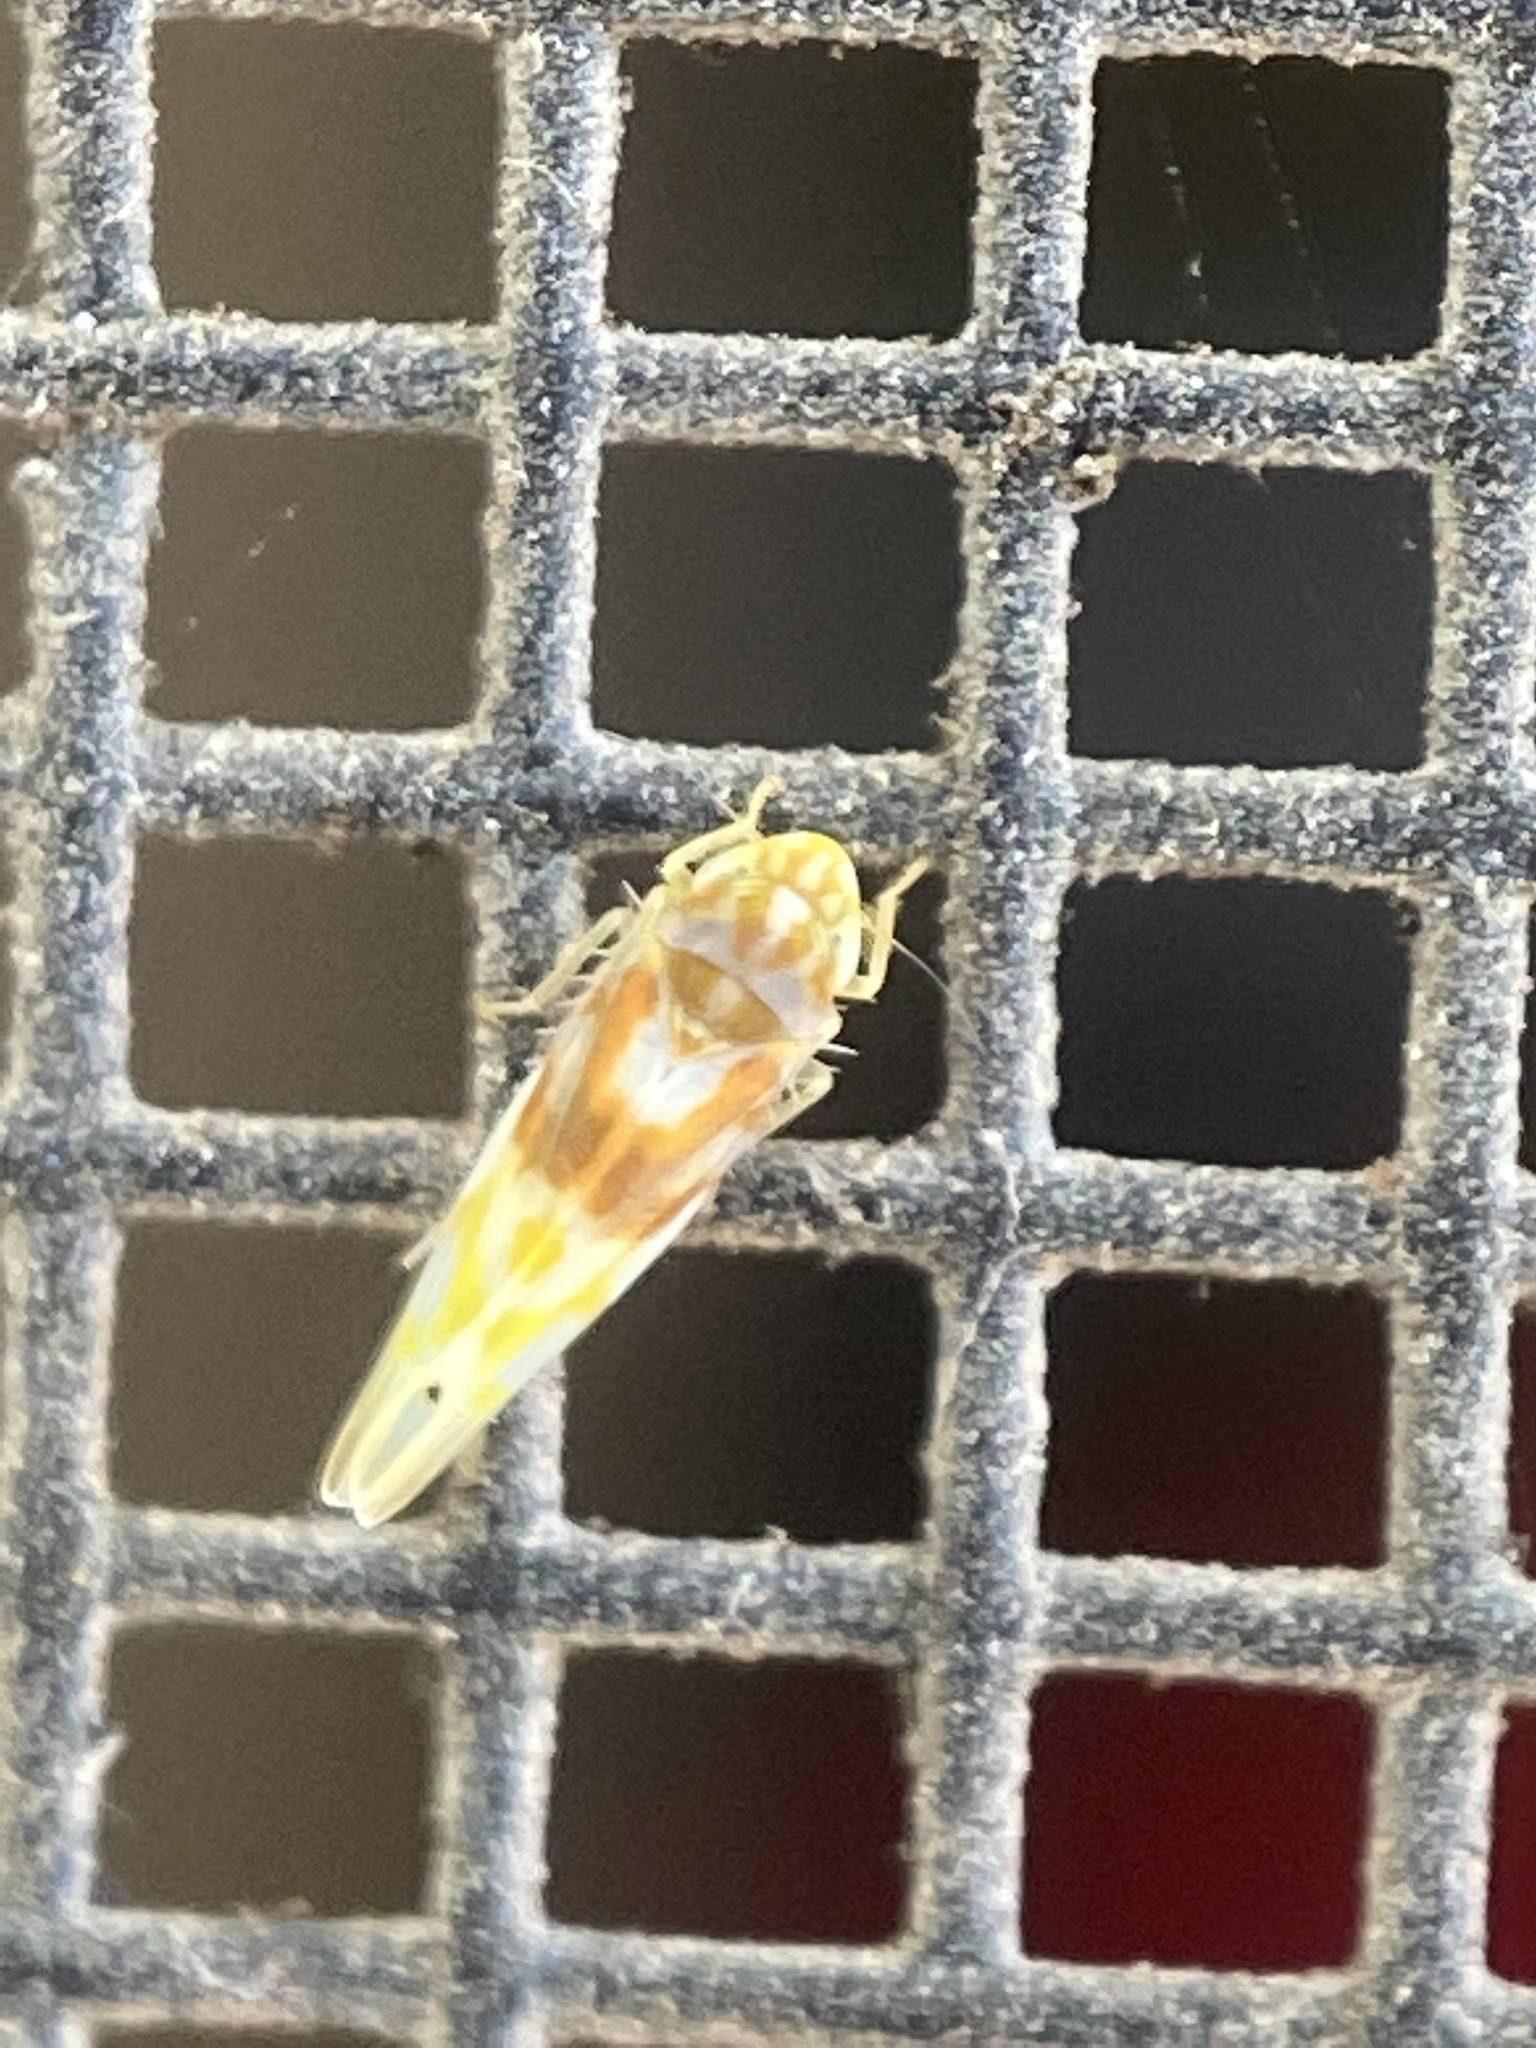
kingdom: Animalia
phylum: Arthropoda
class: Insecta
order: Hemiptera
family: Cicadellidae
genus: Eratoneura
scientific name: Eratoneura affinis
